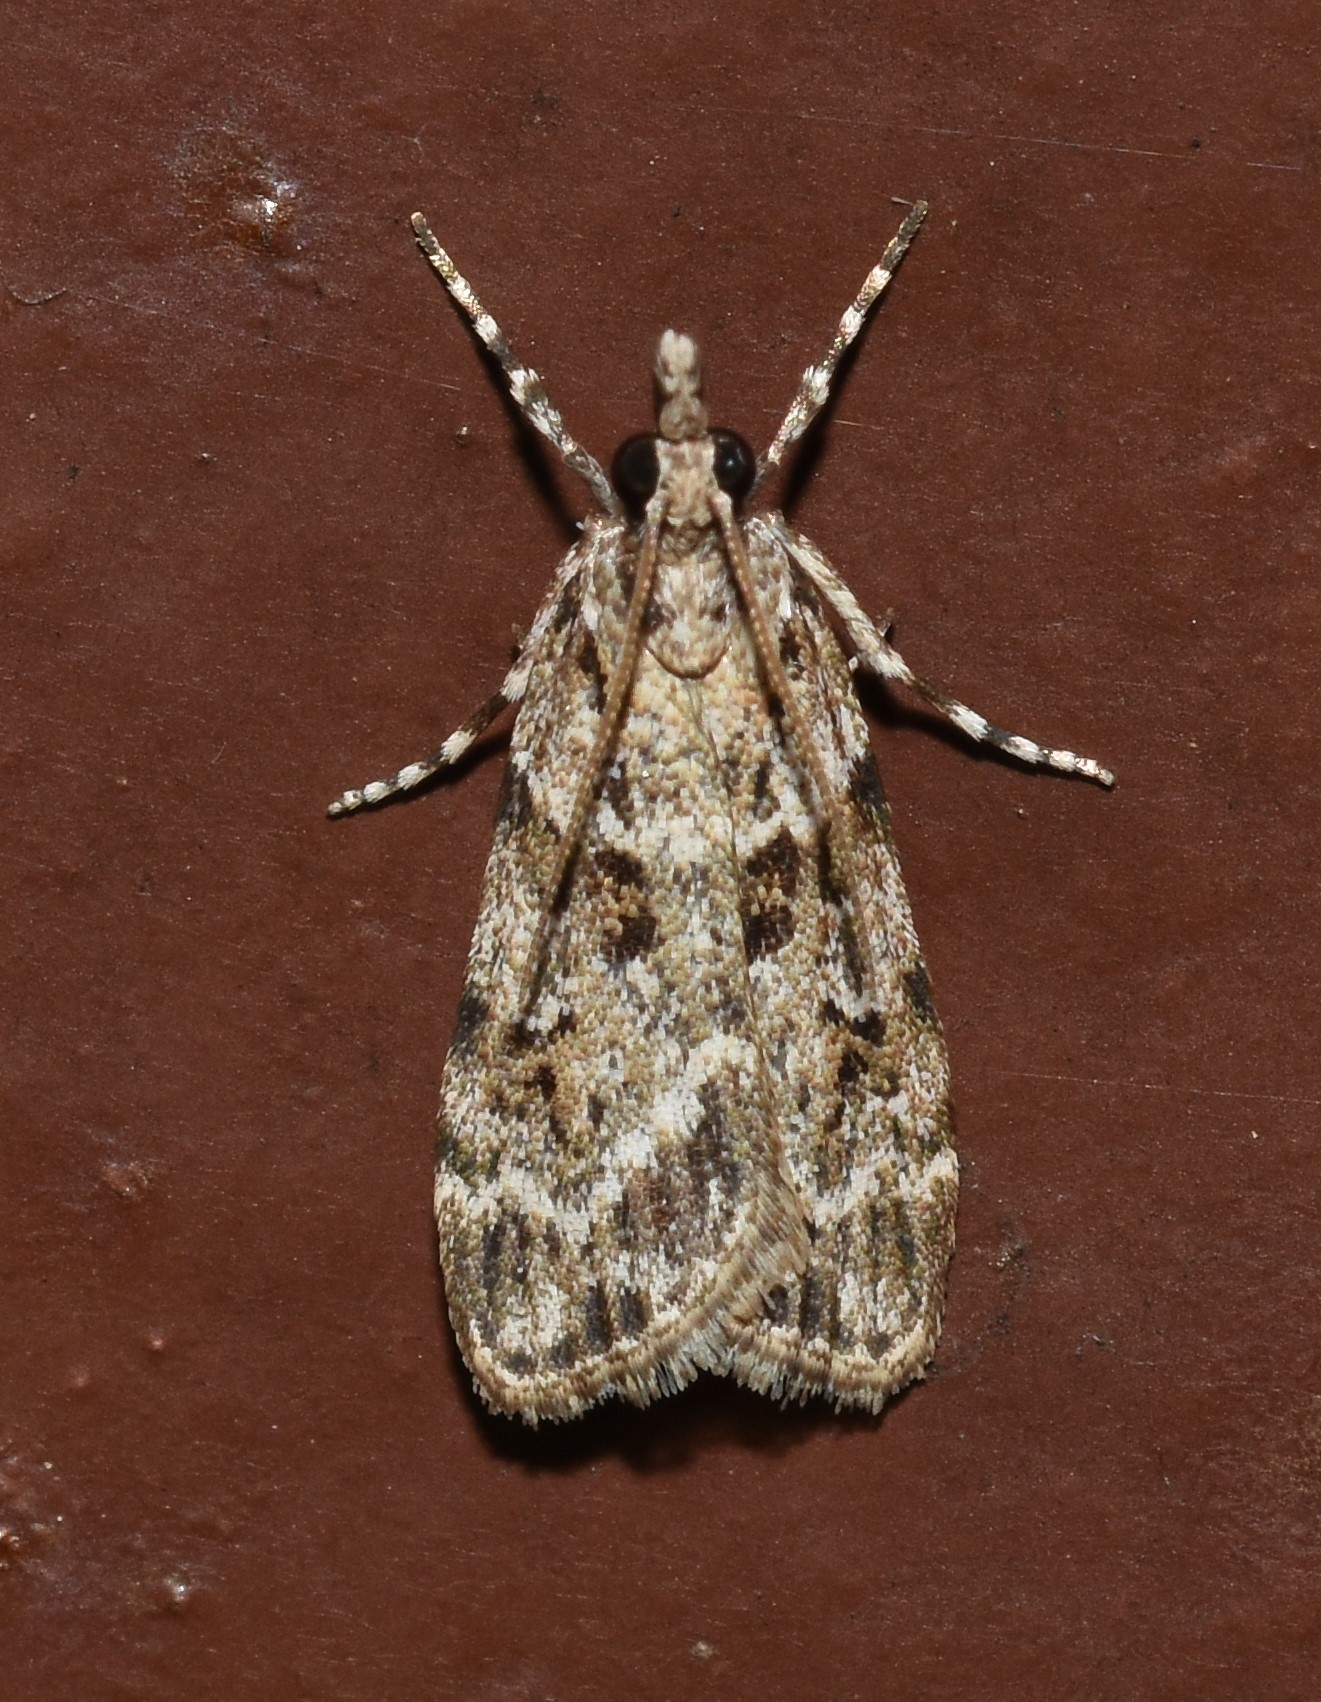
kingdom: Animalia
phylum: Arthropoda
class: Insecta
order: Lepidoptera
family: Crambidae
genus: Scoparia
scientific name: Scoparia biplagialis
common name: Double-striped scoparia moth
